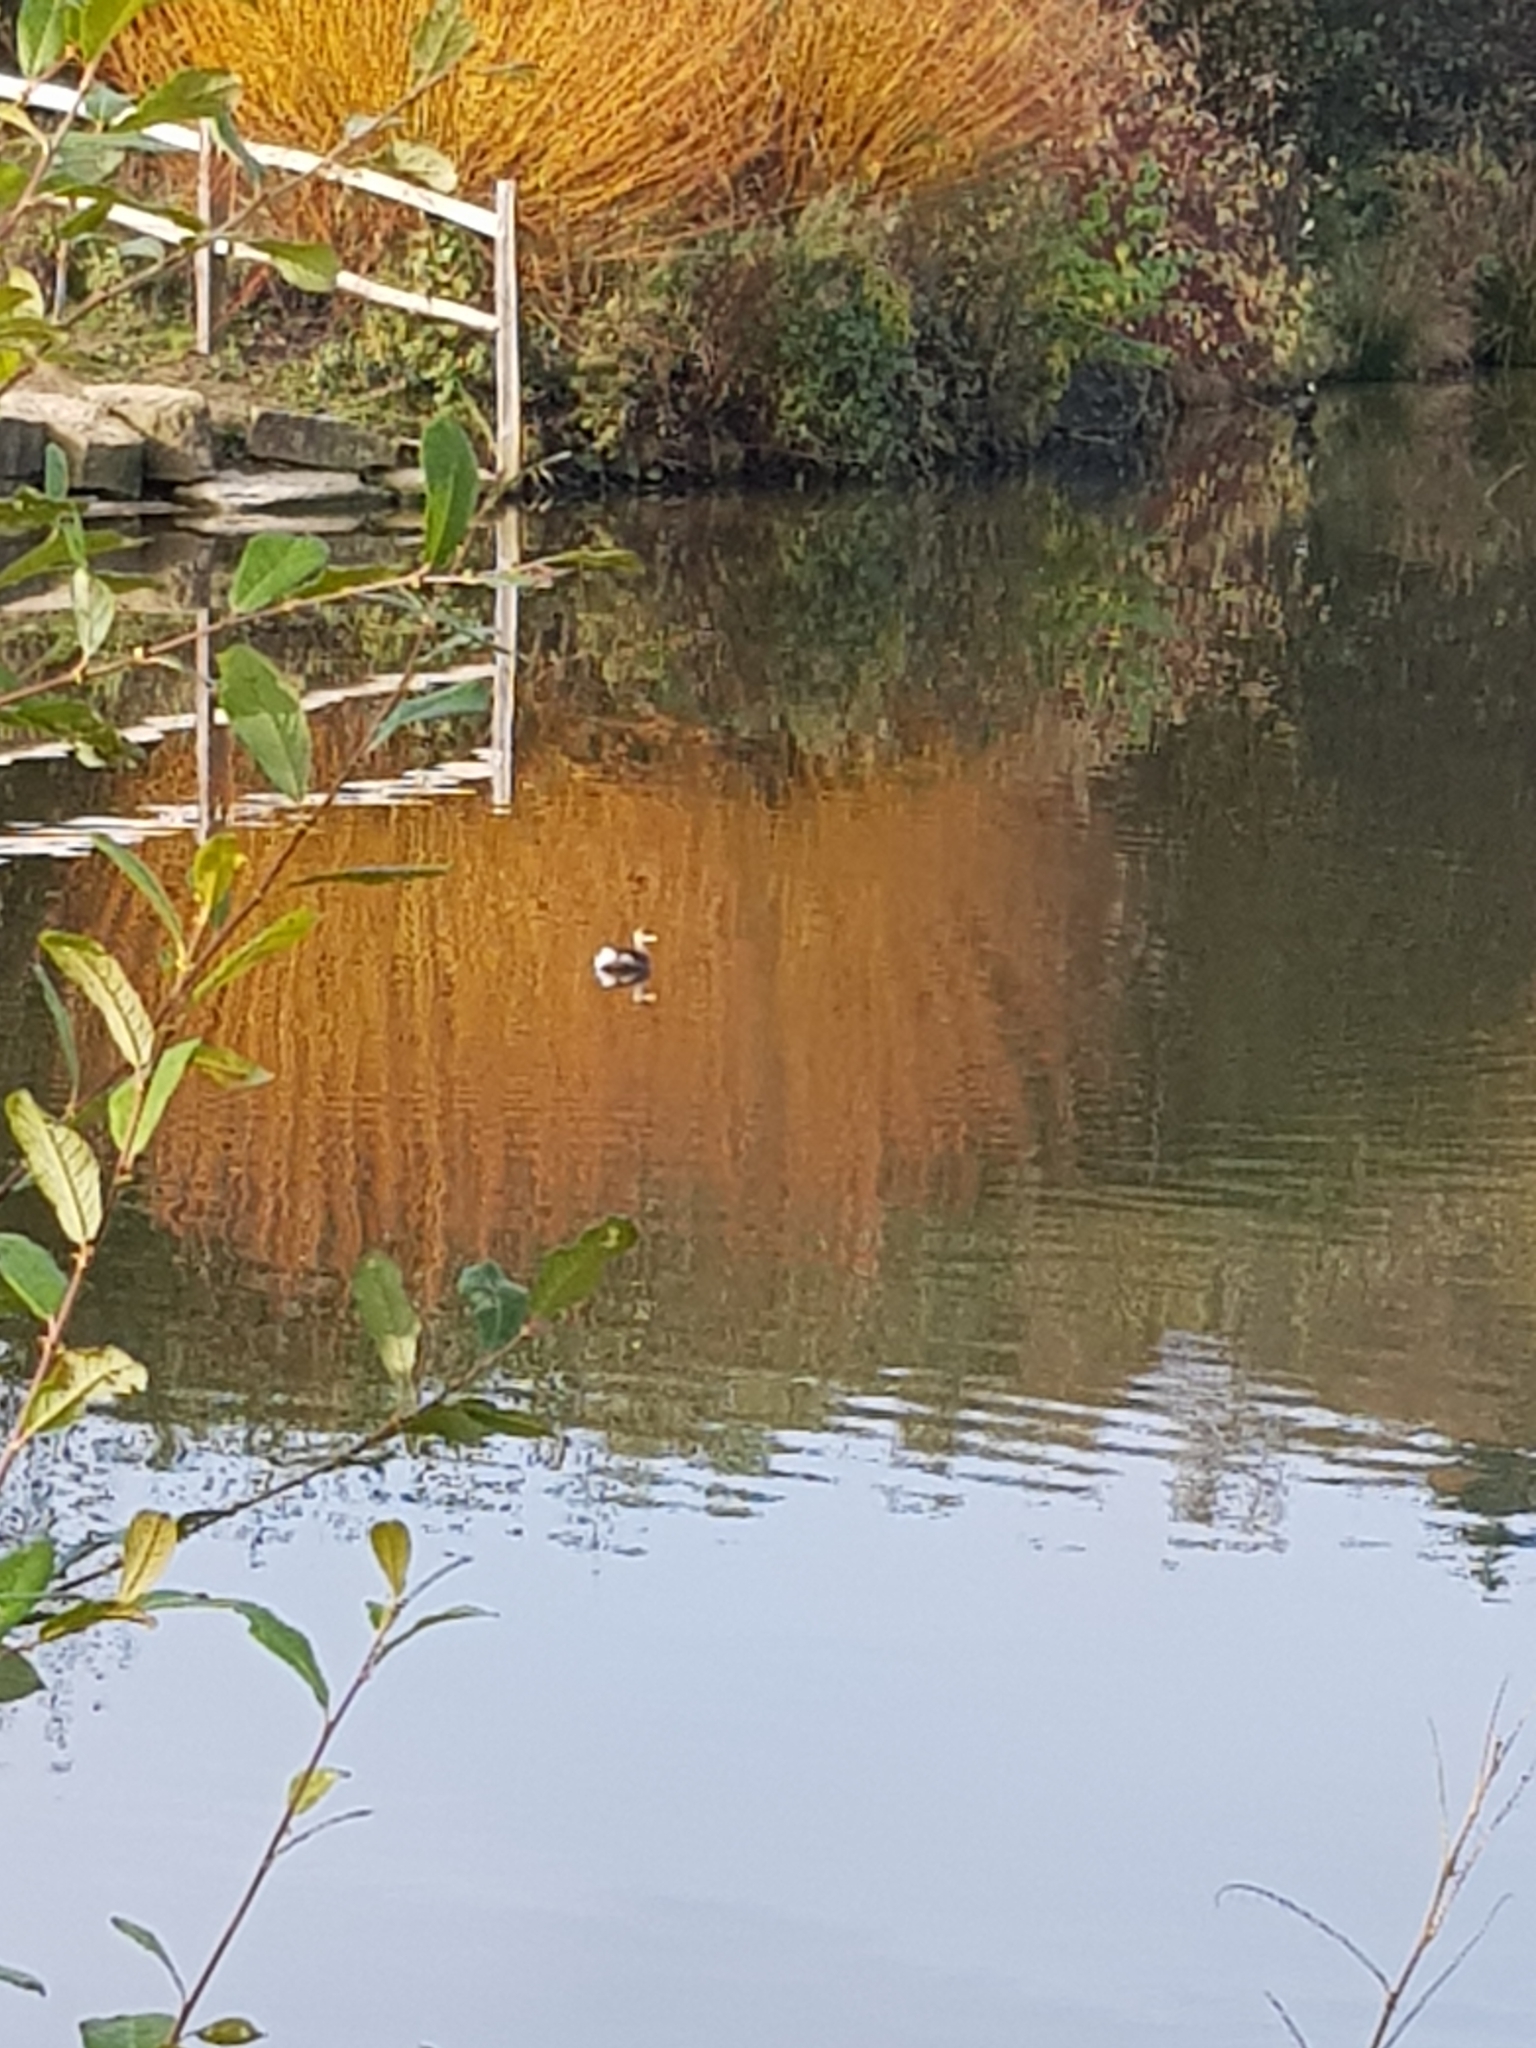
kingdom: Animalia
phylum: Chordata
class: Aves
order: Podicipediformes
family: Podicipedidae
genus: Tachybaptus
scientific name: Tachybaptus ruficollis
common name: Little grebe
